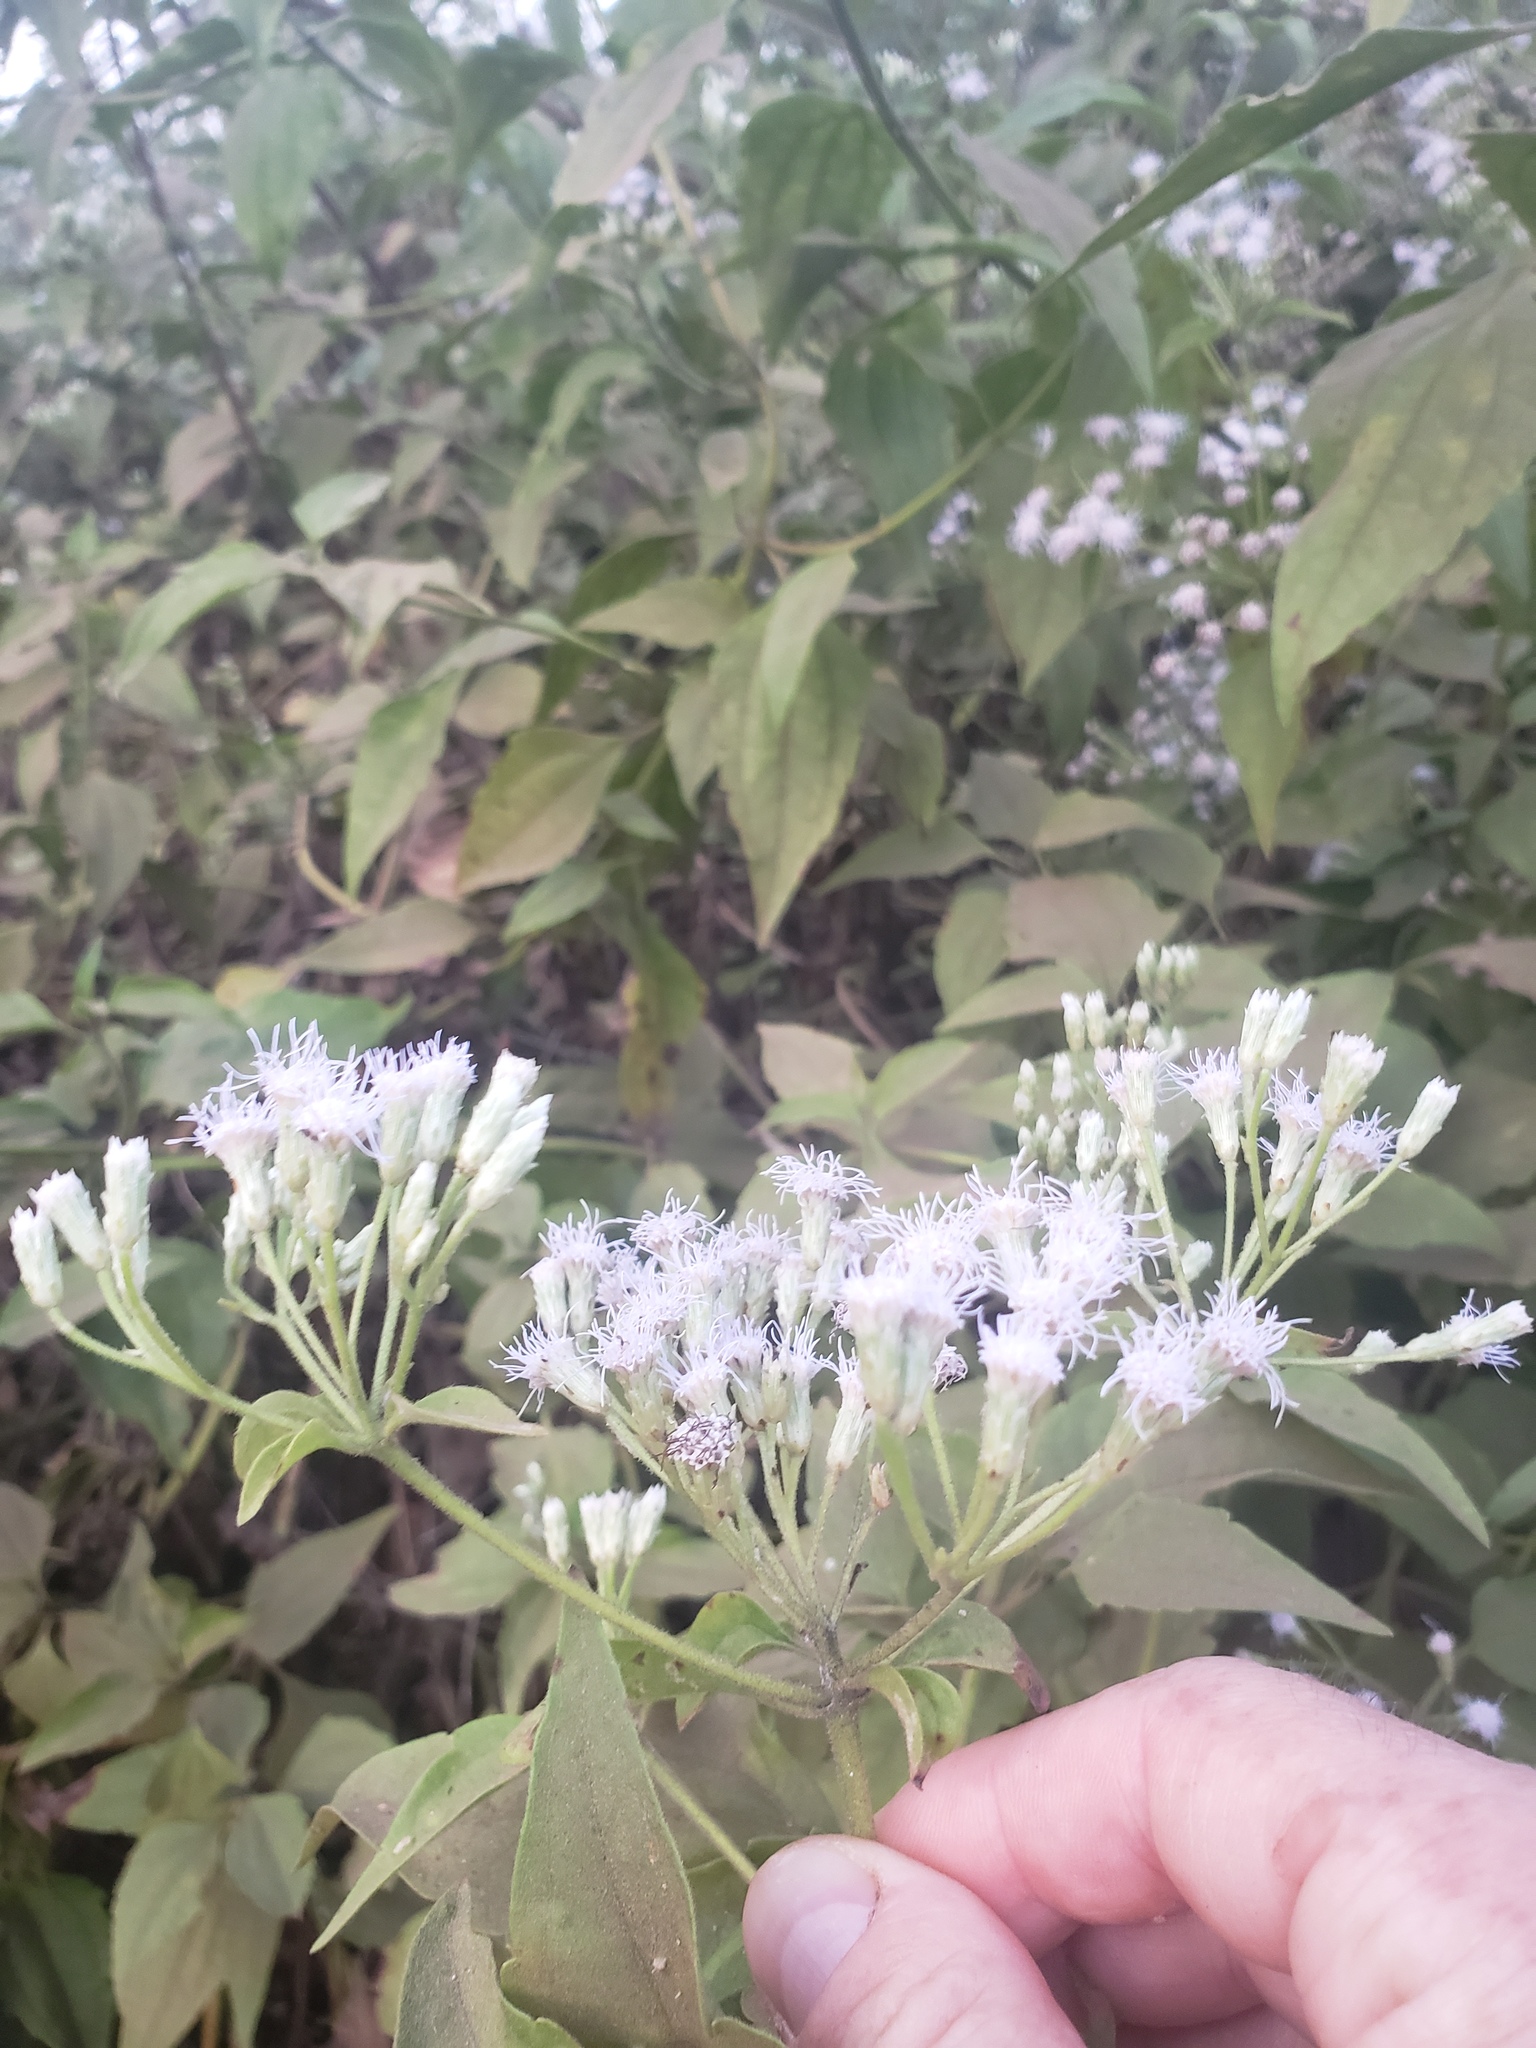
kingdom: Plantae
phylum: Tracheophyta
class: Magnoliopsida
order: Asterales
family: Asteraceae
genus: Chromolaena
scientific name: Chromolaena odorata
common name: Siamweed
